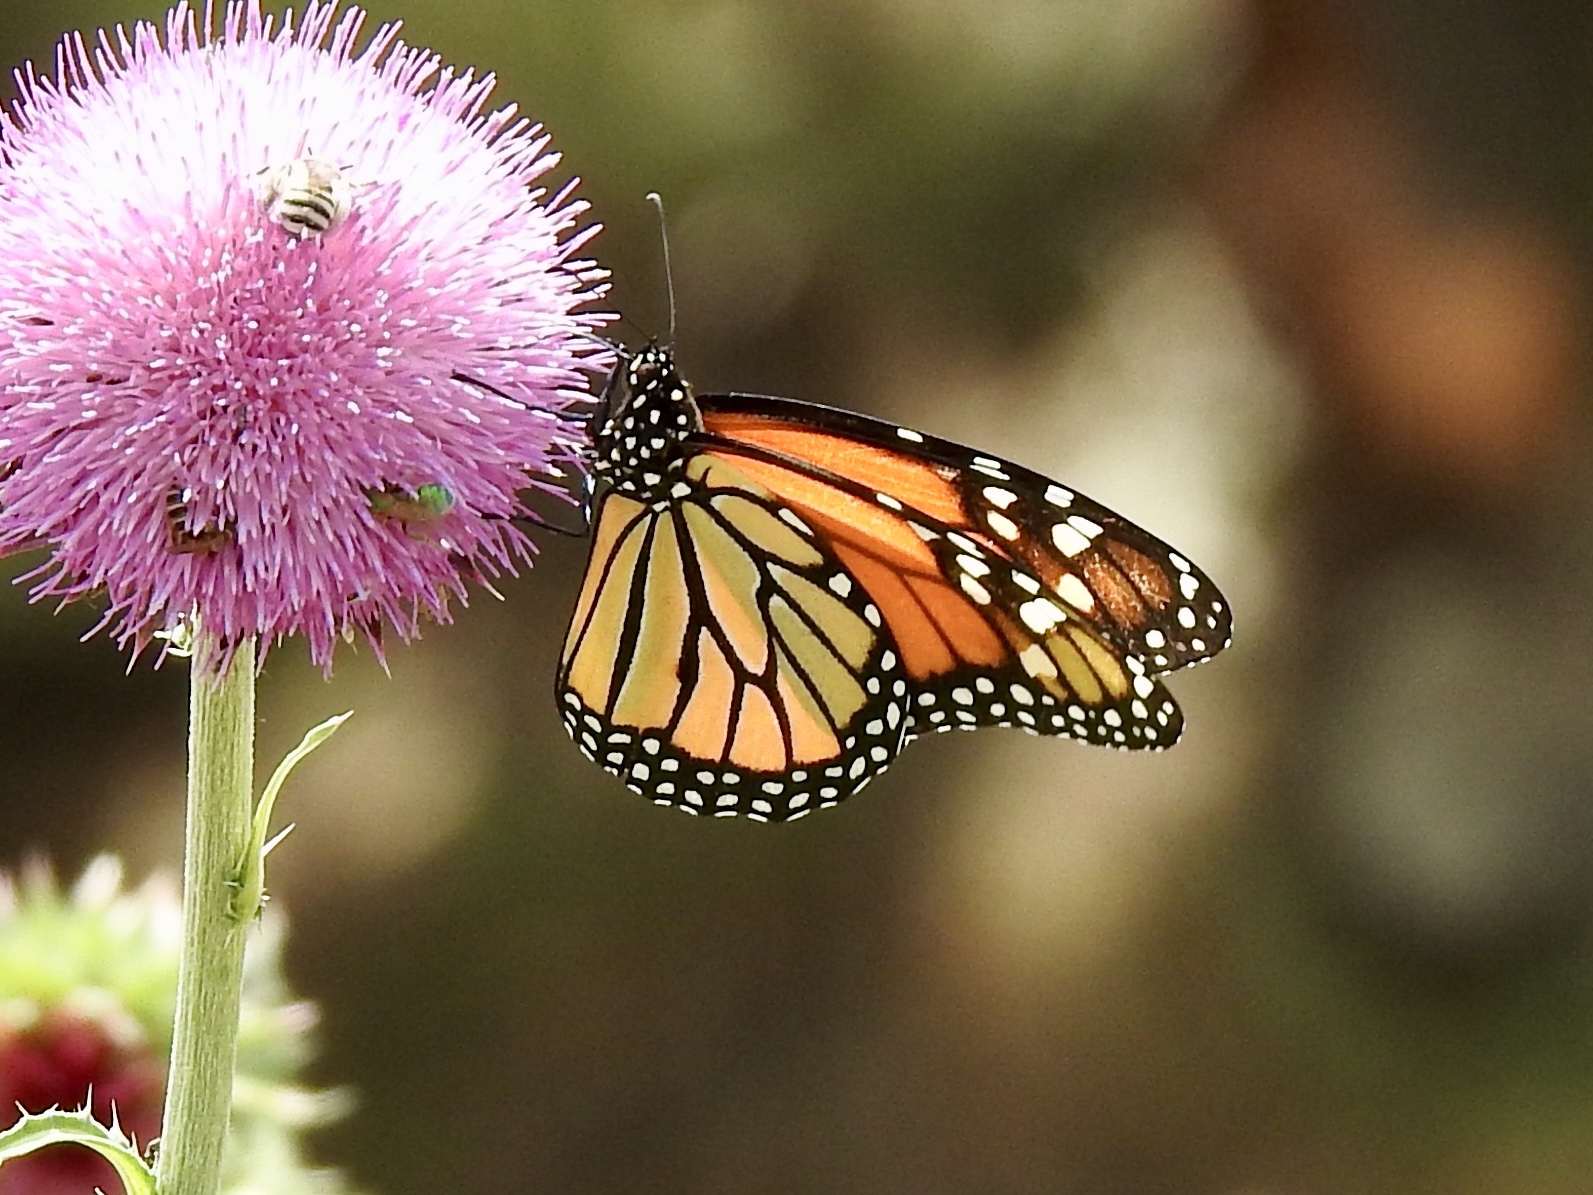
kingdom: Animalia
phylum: Arthropoda
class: Insecta
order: Lepidoptera
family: Nymphalidae
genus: Danaus
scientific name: Danaus plexippus
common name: Monarch
